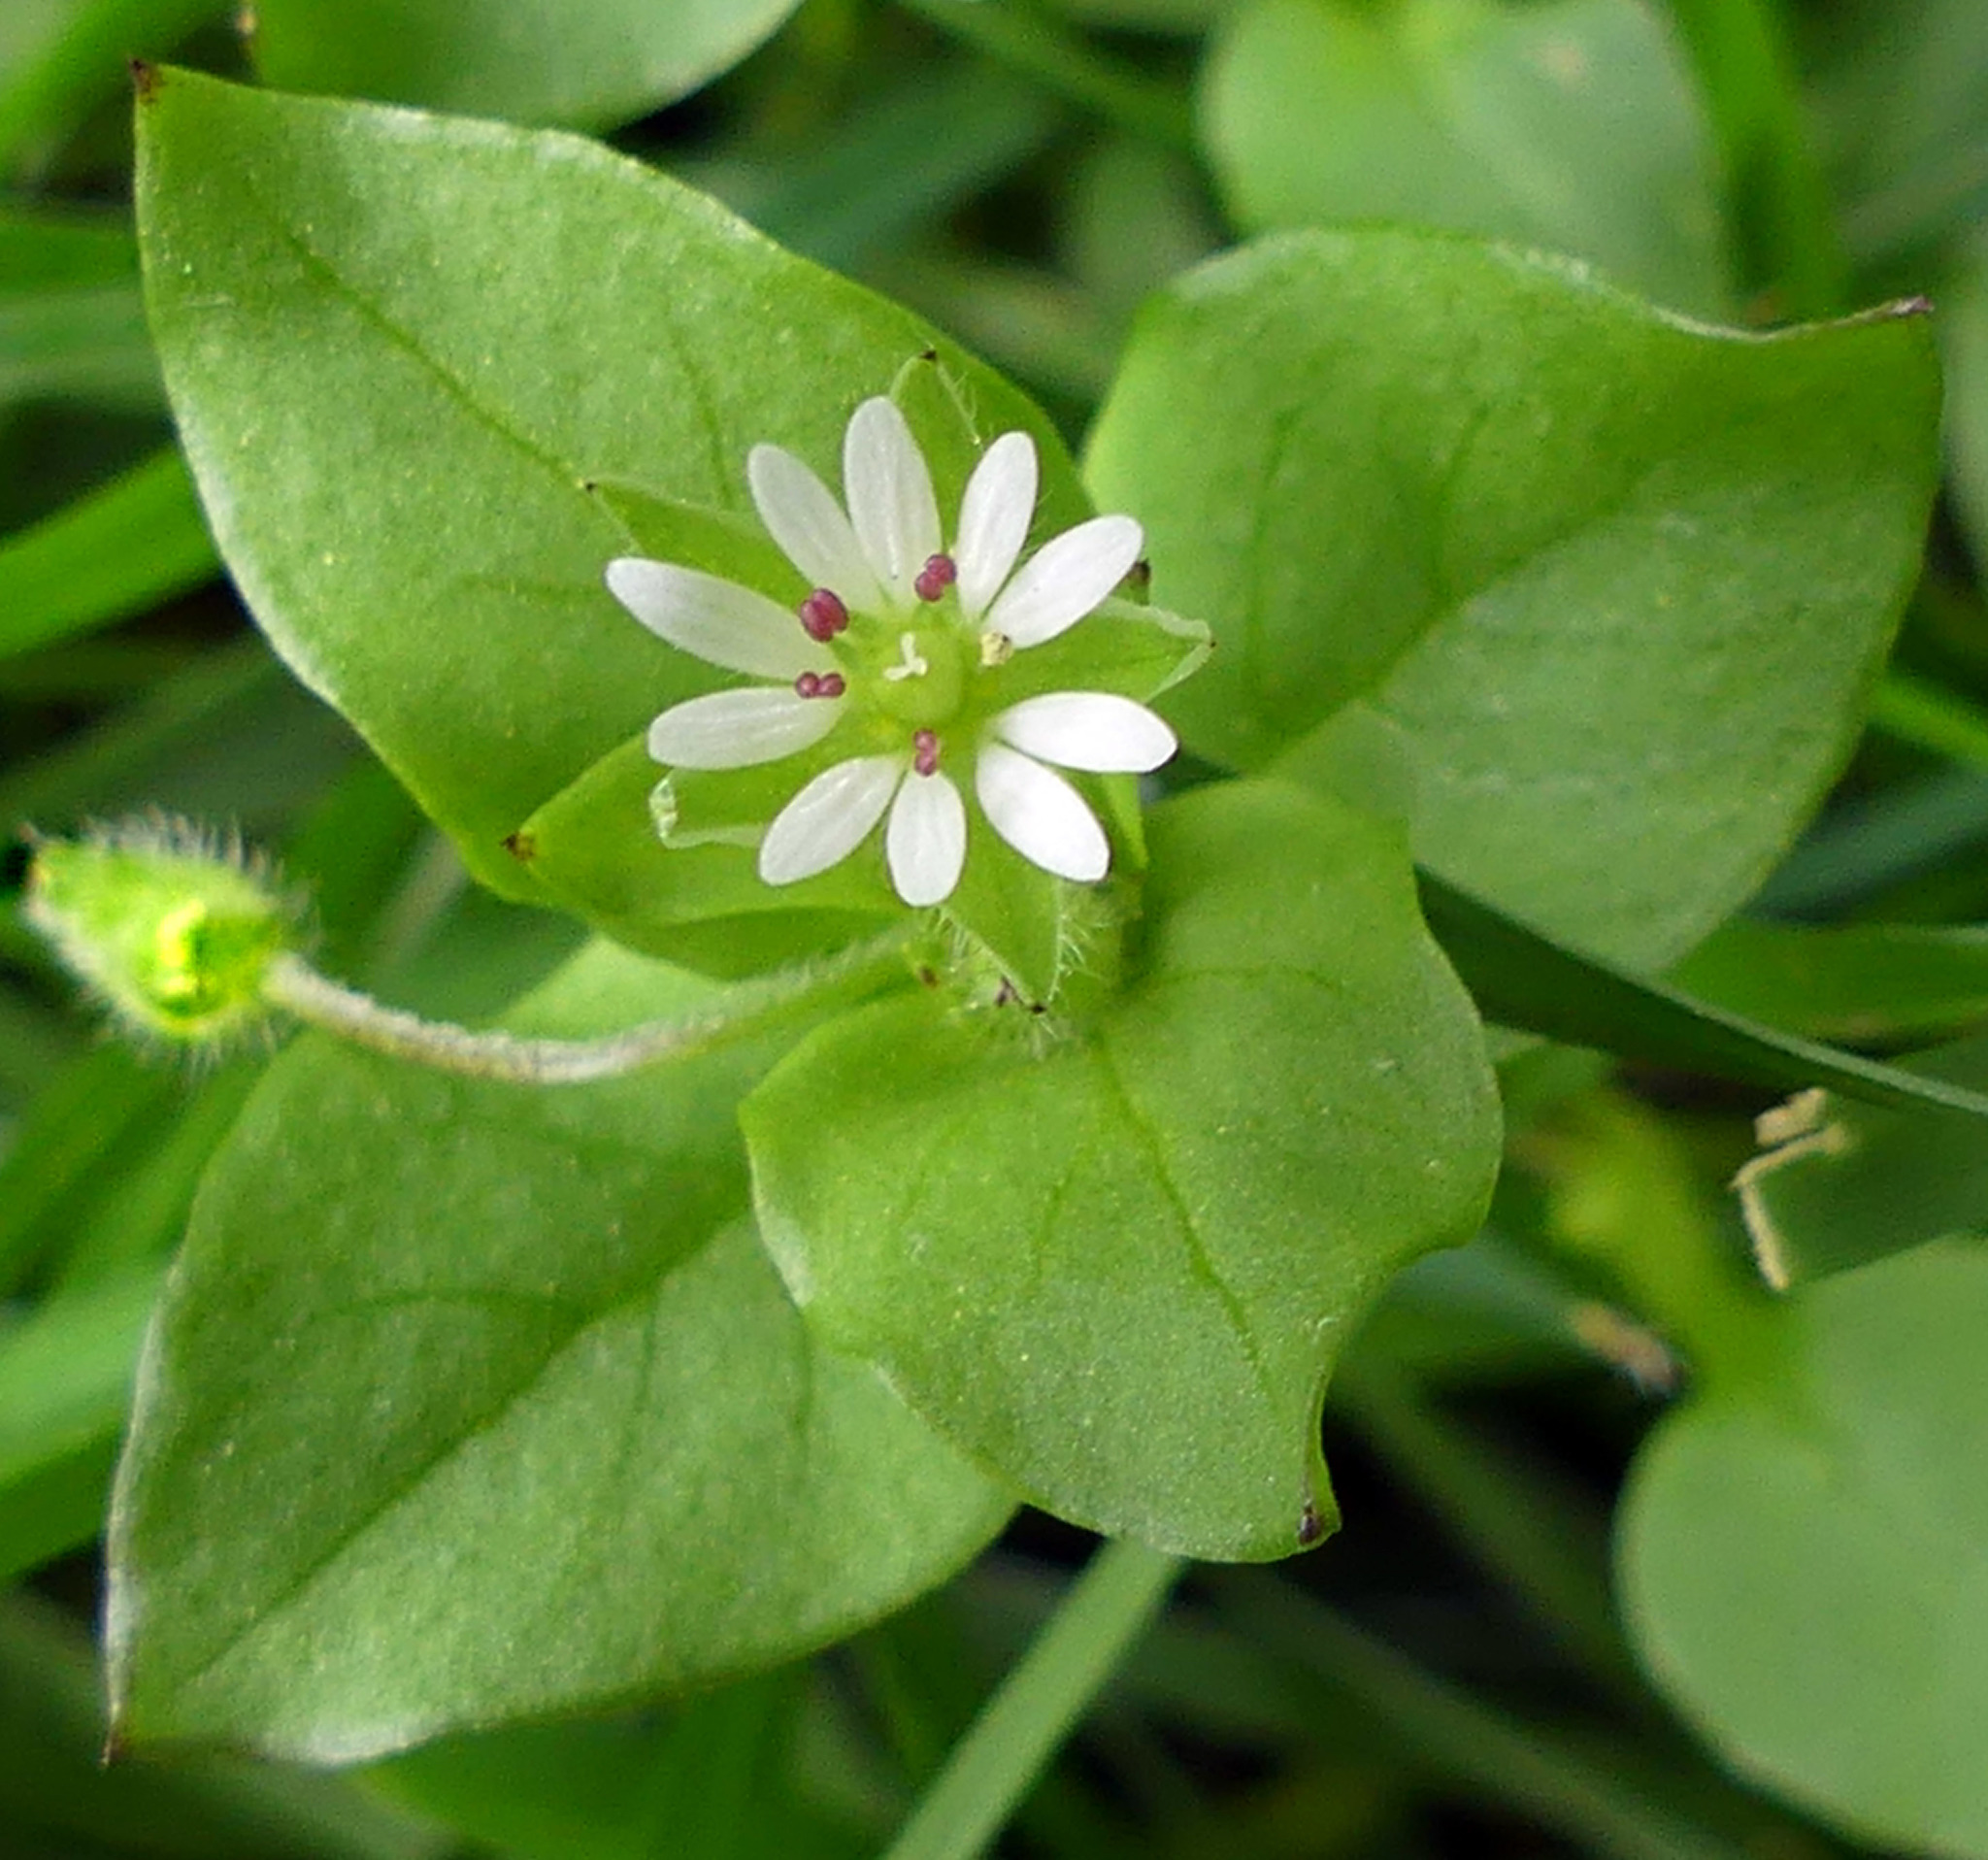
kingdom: Plantae
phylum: Tracheophyta
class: Magnoliopsida
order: Caryophyllales
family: Caryophyllaceae
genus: Stellaria
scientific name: Stellaria media
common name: Common chickweed
